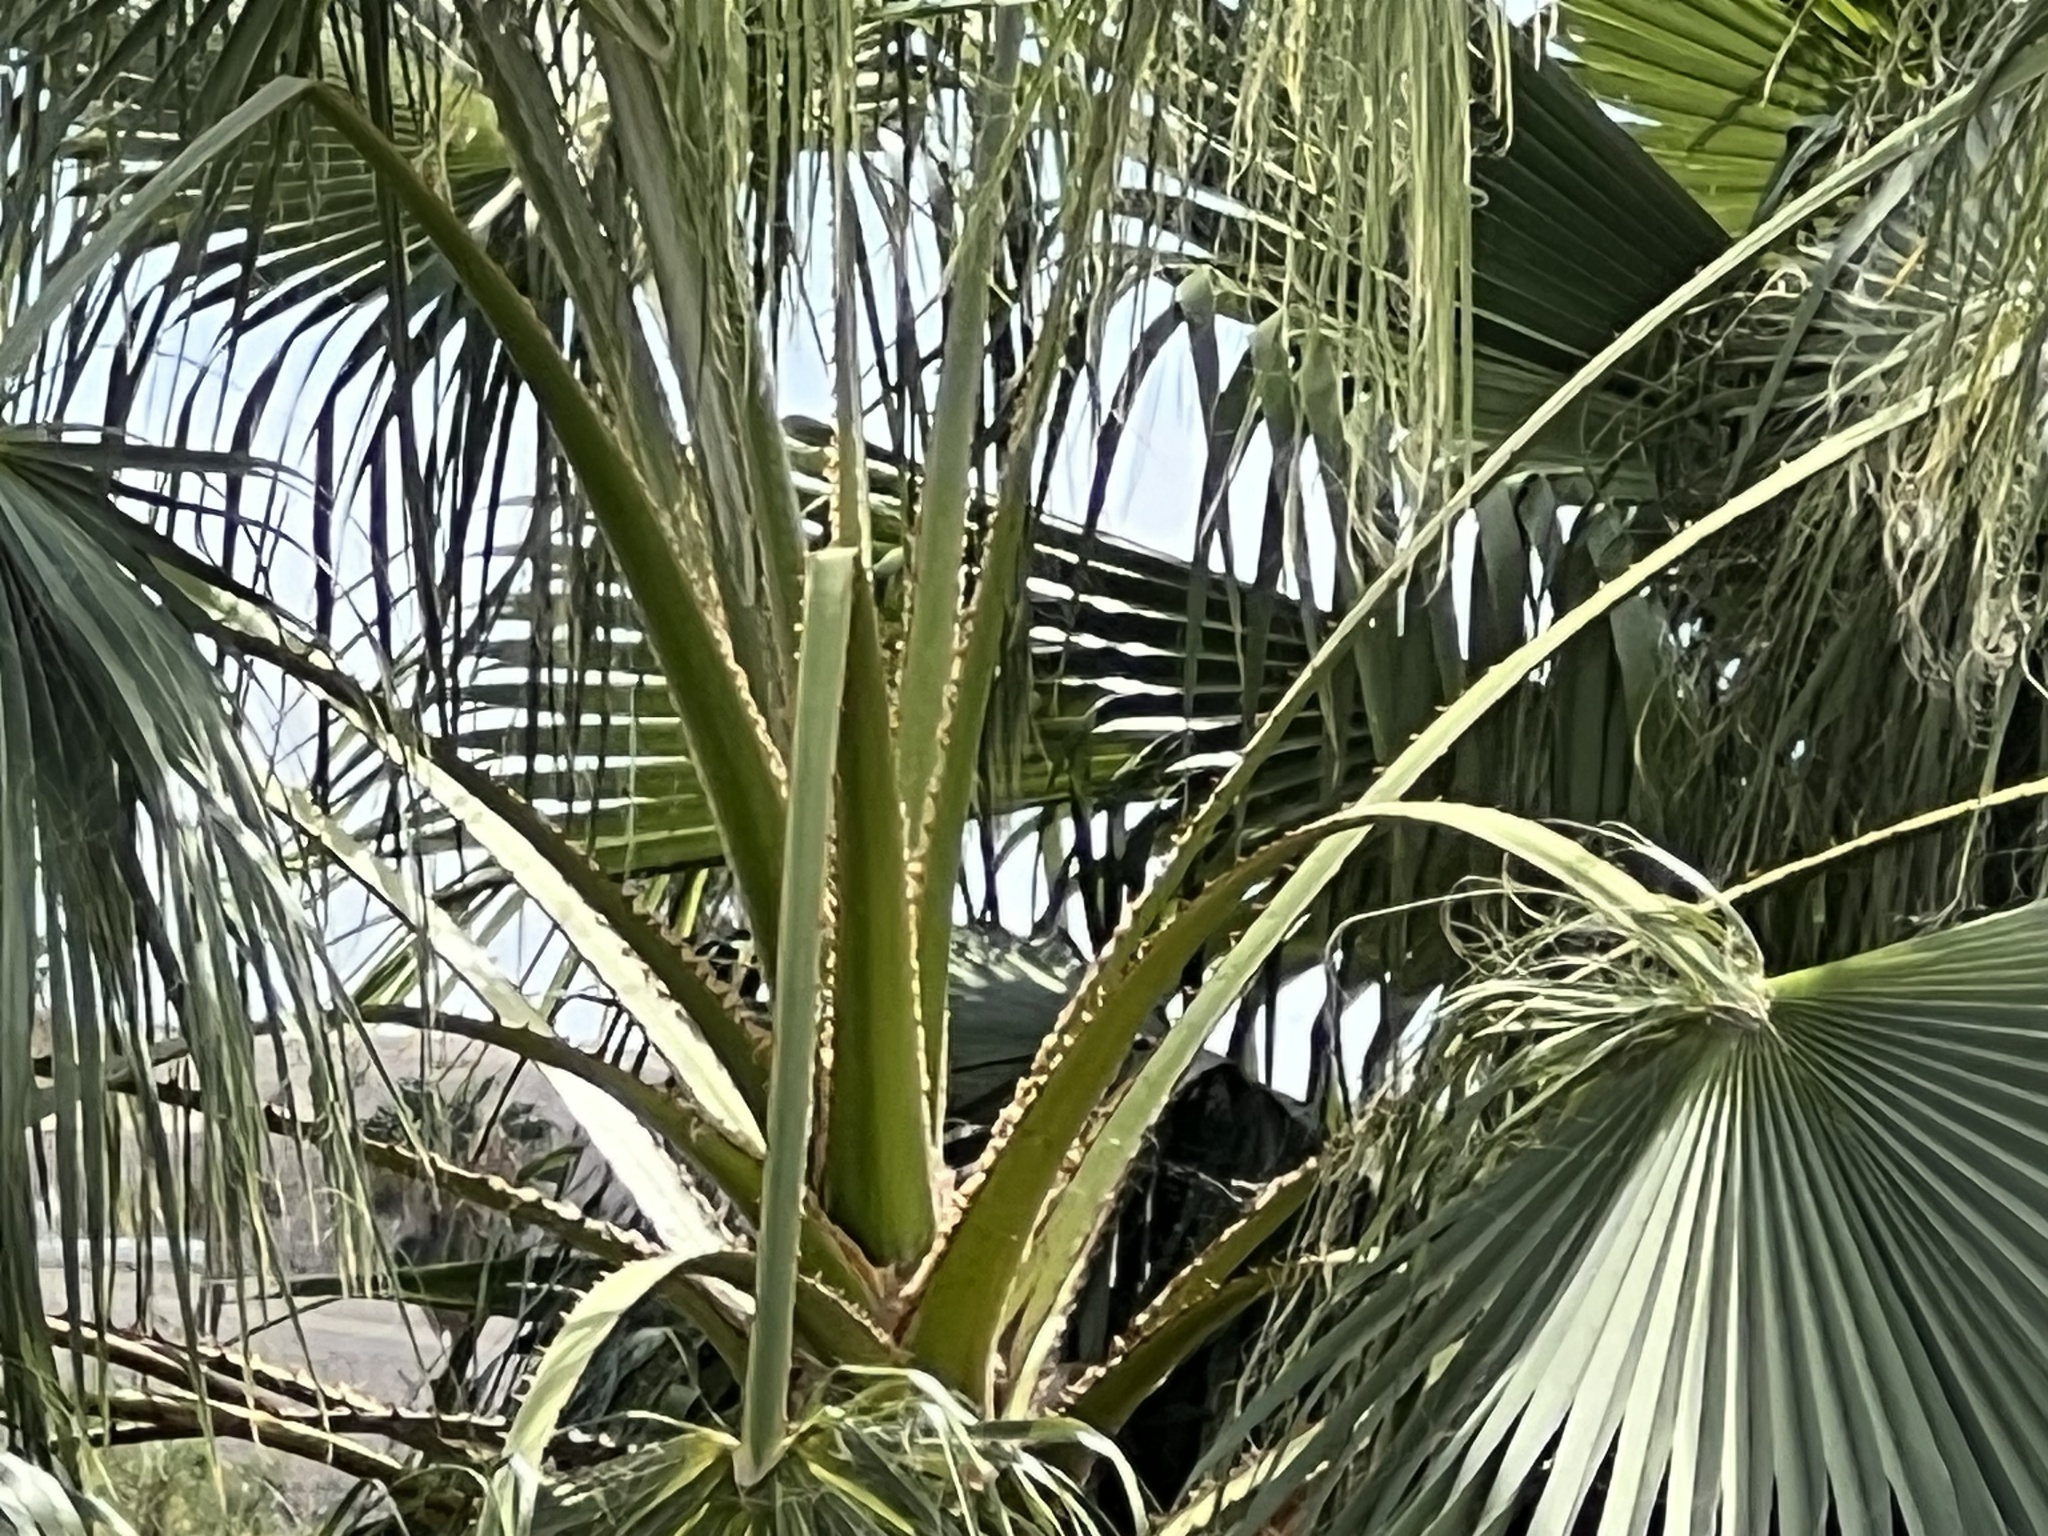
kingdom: Plantae
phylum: Tracheophyta
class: Liliopsida
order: Arecales
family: Arecaceae
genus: Washingtonia
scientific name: Washingtonia robusta
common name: Mexican fan palm
